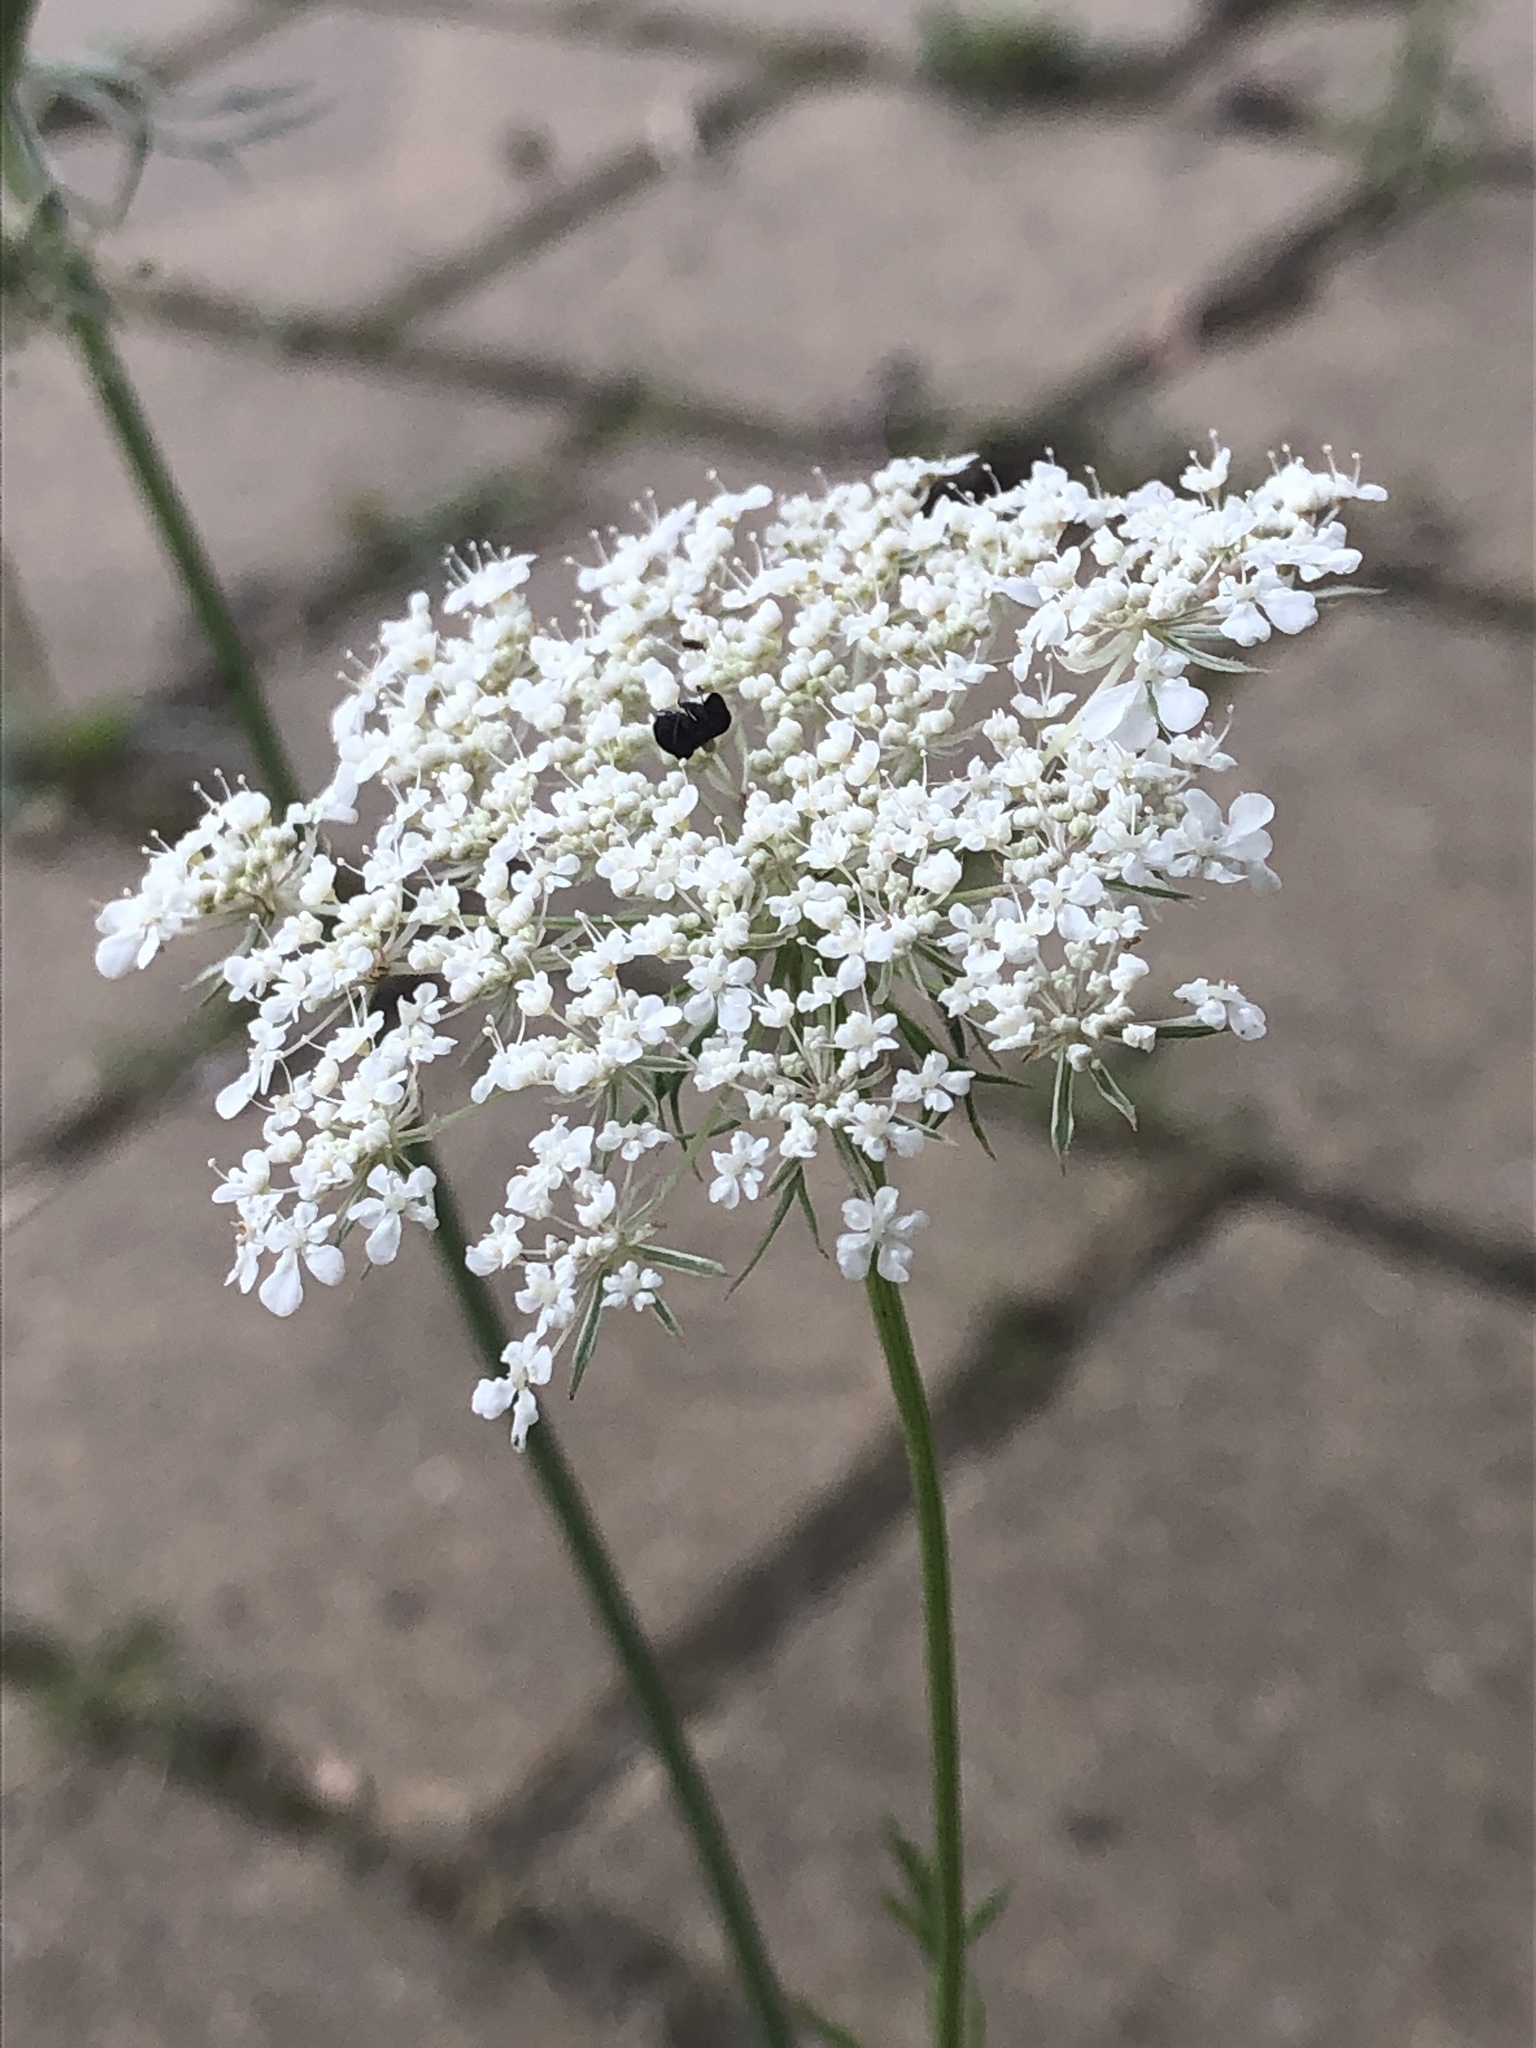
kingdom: Plantae
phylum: Tracheophyta
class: Magnoliopsida
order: Apiales
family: Apiaceae
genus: Daucus
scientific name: Daucus carota
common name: Wild carrot
